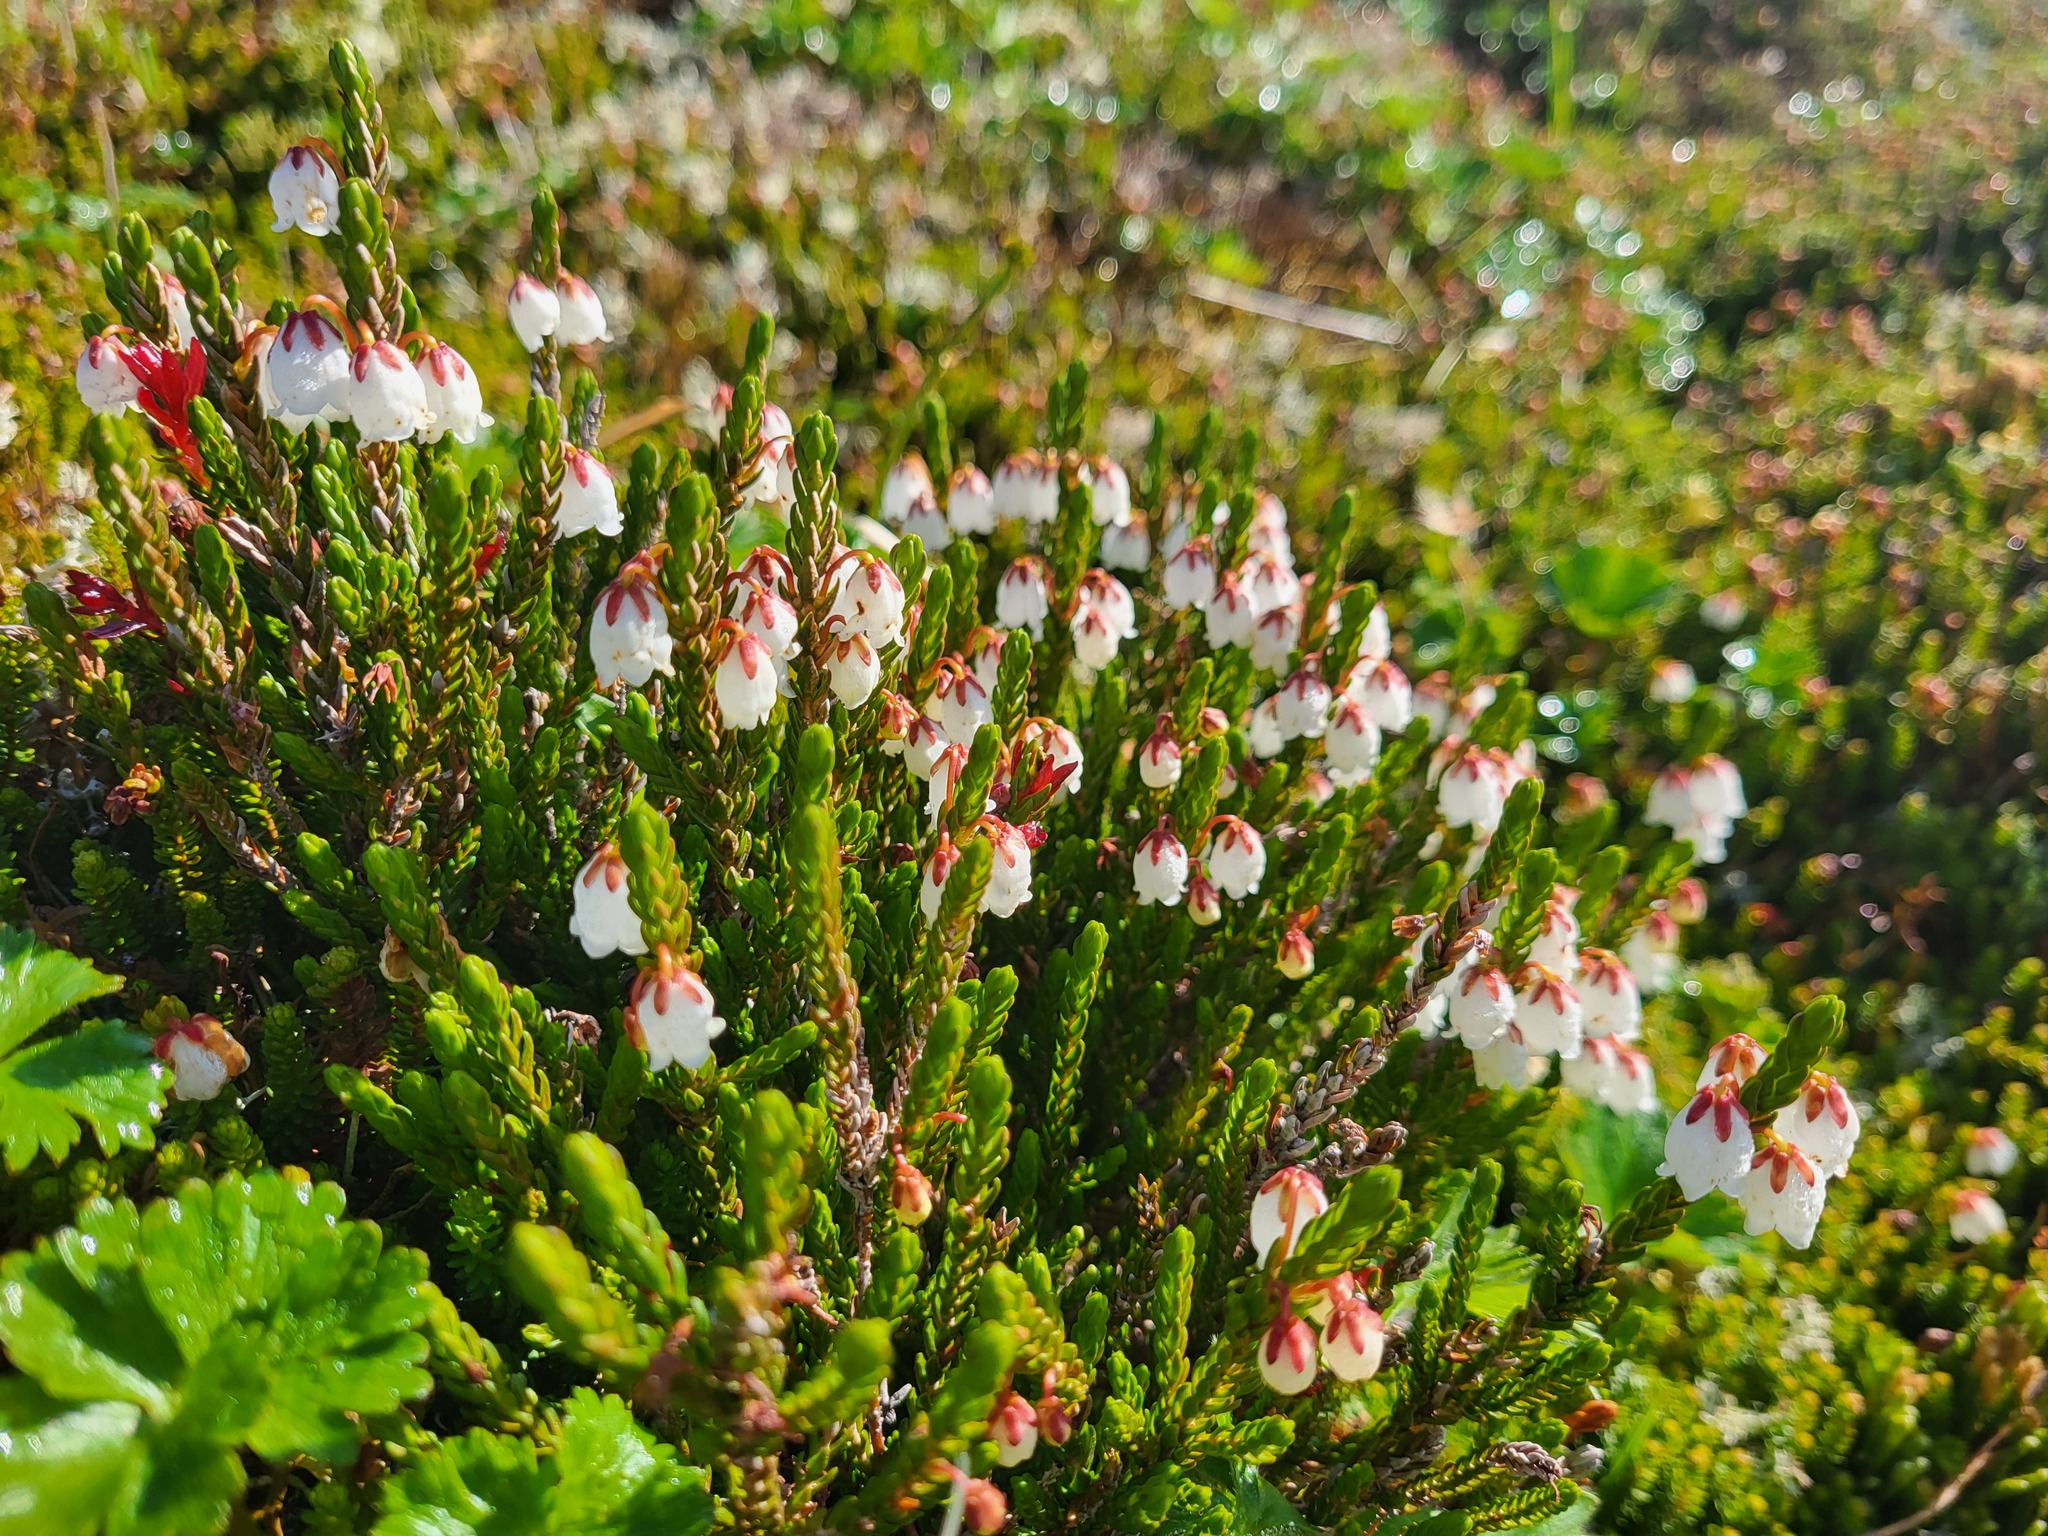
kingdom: Plantae
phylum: Tracheophyta
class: Magnoliopsida
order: Ericales
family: Ericaceae
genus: Cassiope
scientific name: Cassiope mertensiana
